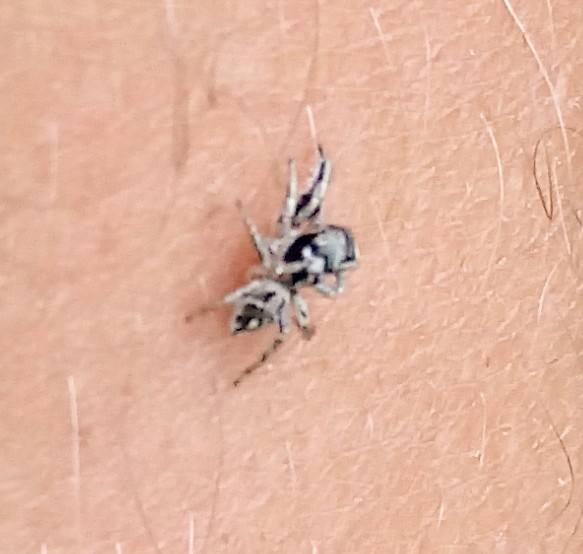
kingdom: Animalia
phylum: Arthropoda
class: Arachnida
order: Araneae
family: Salticidae
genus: Habronattus
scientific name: Habronattus coecatus
